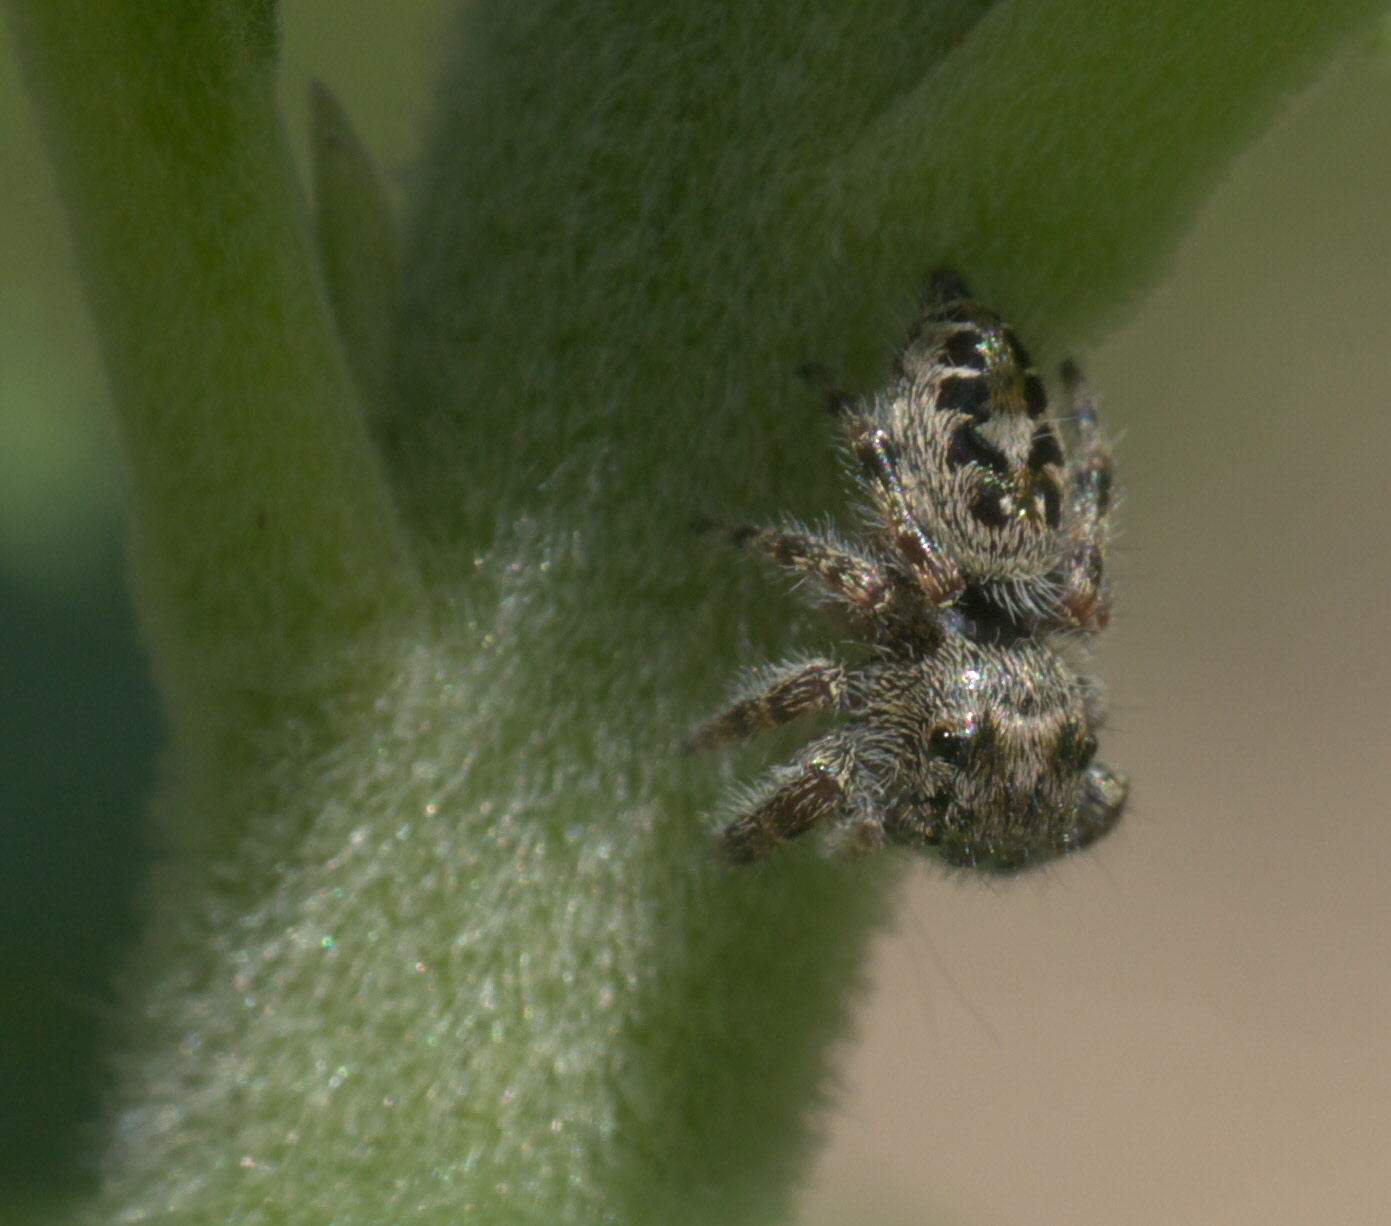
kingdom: Animalia
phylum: Arthropoda
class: Arachnida
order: Araneae
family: Salticidae
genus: Phidippus
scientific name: Phidippus putnami
